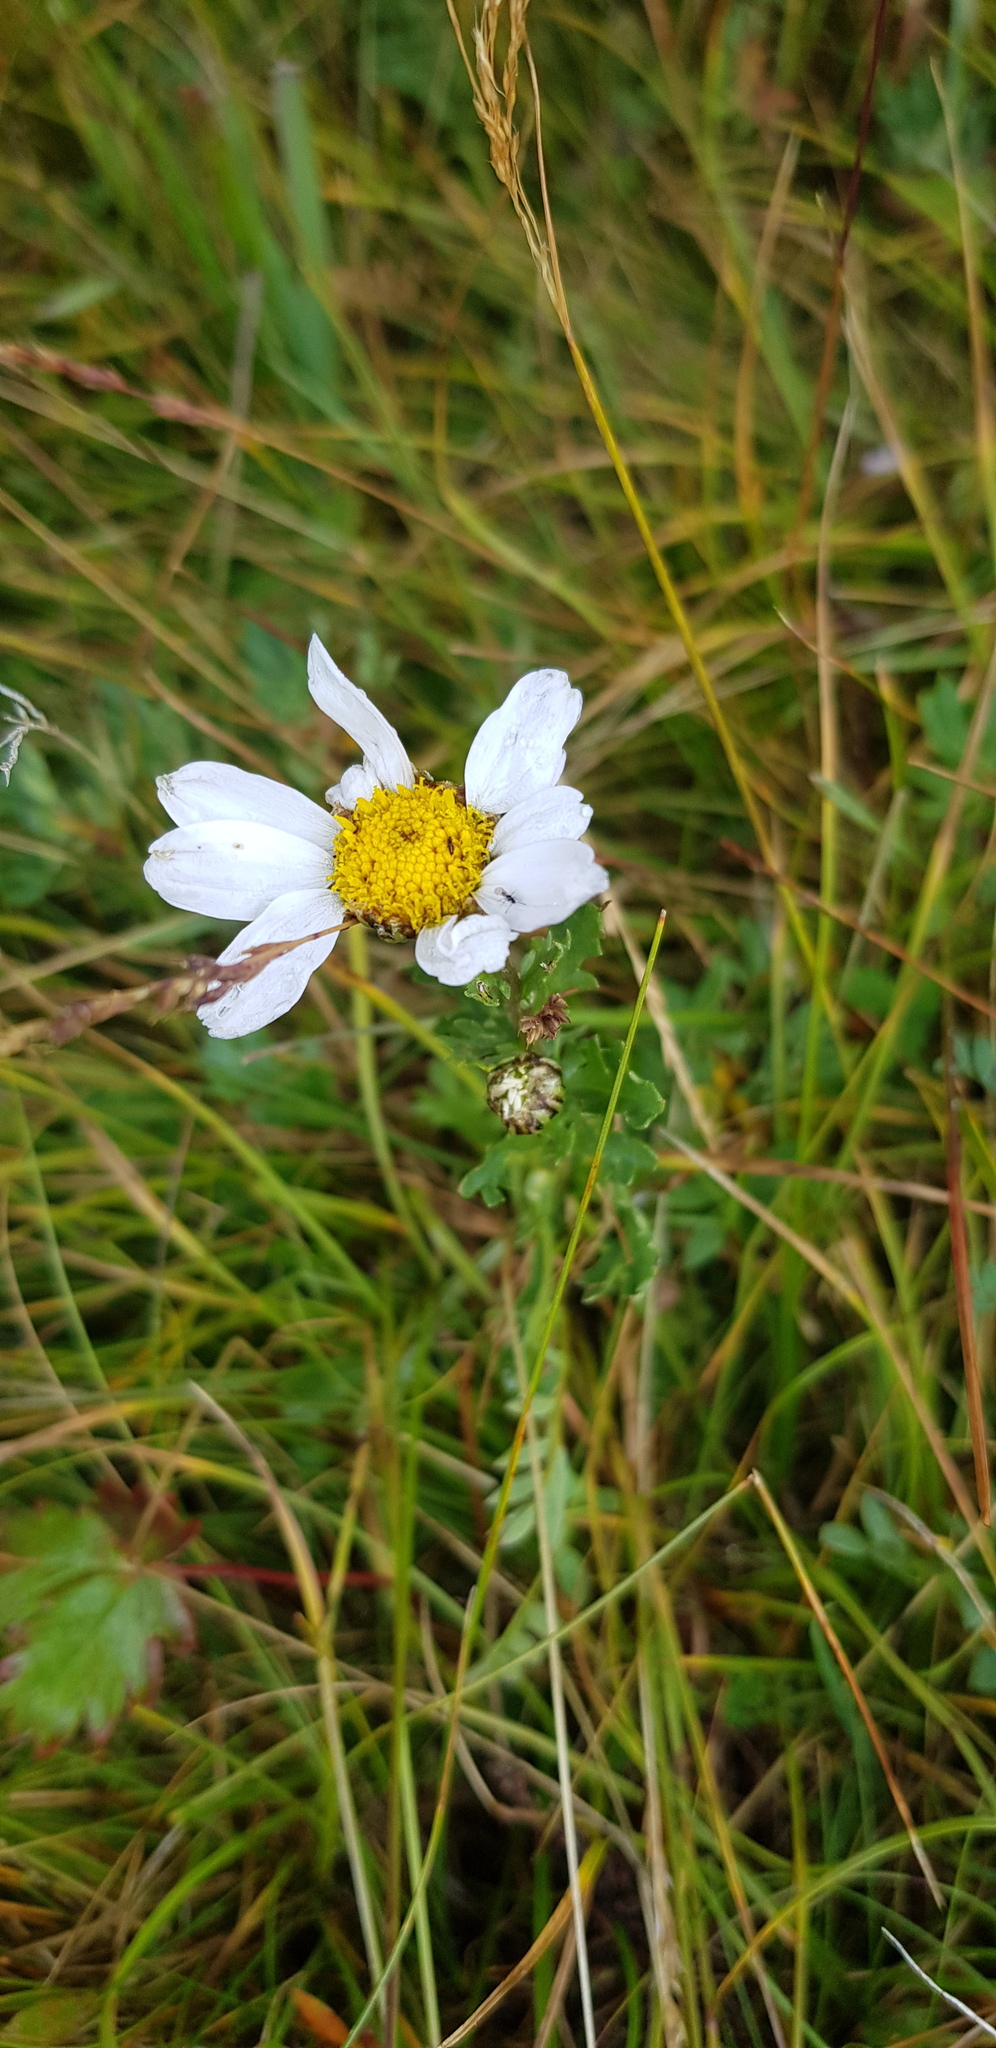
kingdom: Plantae
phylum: Tracheophyta
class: Magnoliopsida
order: Asterales
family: Asteraceae
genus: Chrysanthemum
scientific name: Chrysanthemum zawadzkii
